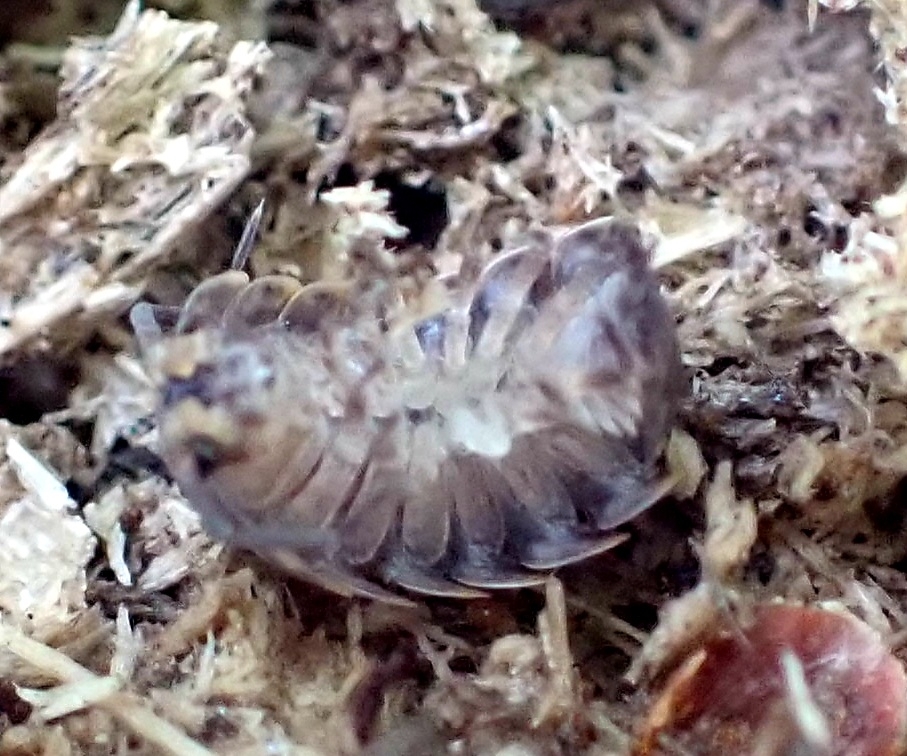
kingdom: Animalia
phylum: Arthropoda
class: Malacostraca
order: Isopoda
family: Trachelipodidae
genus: Trachelipus
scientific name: Trachelipus rathkii
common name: Isopod
